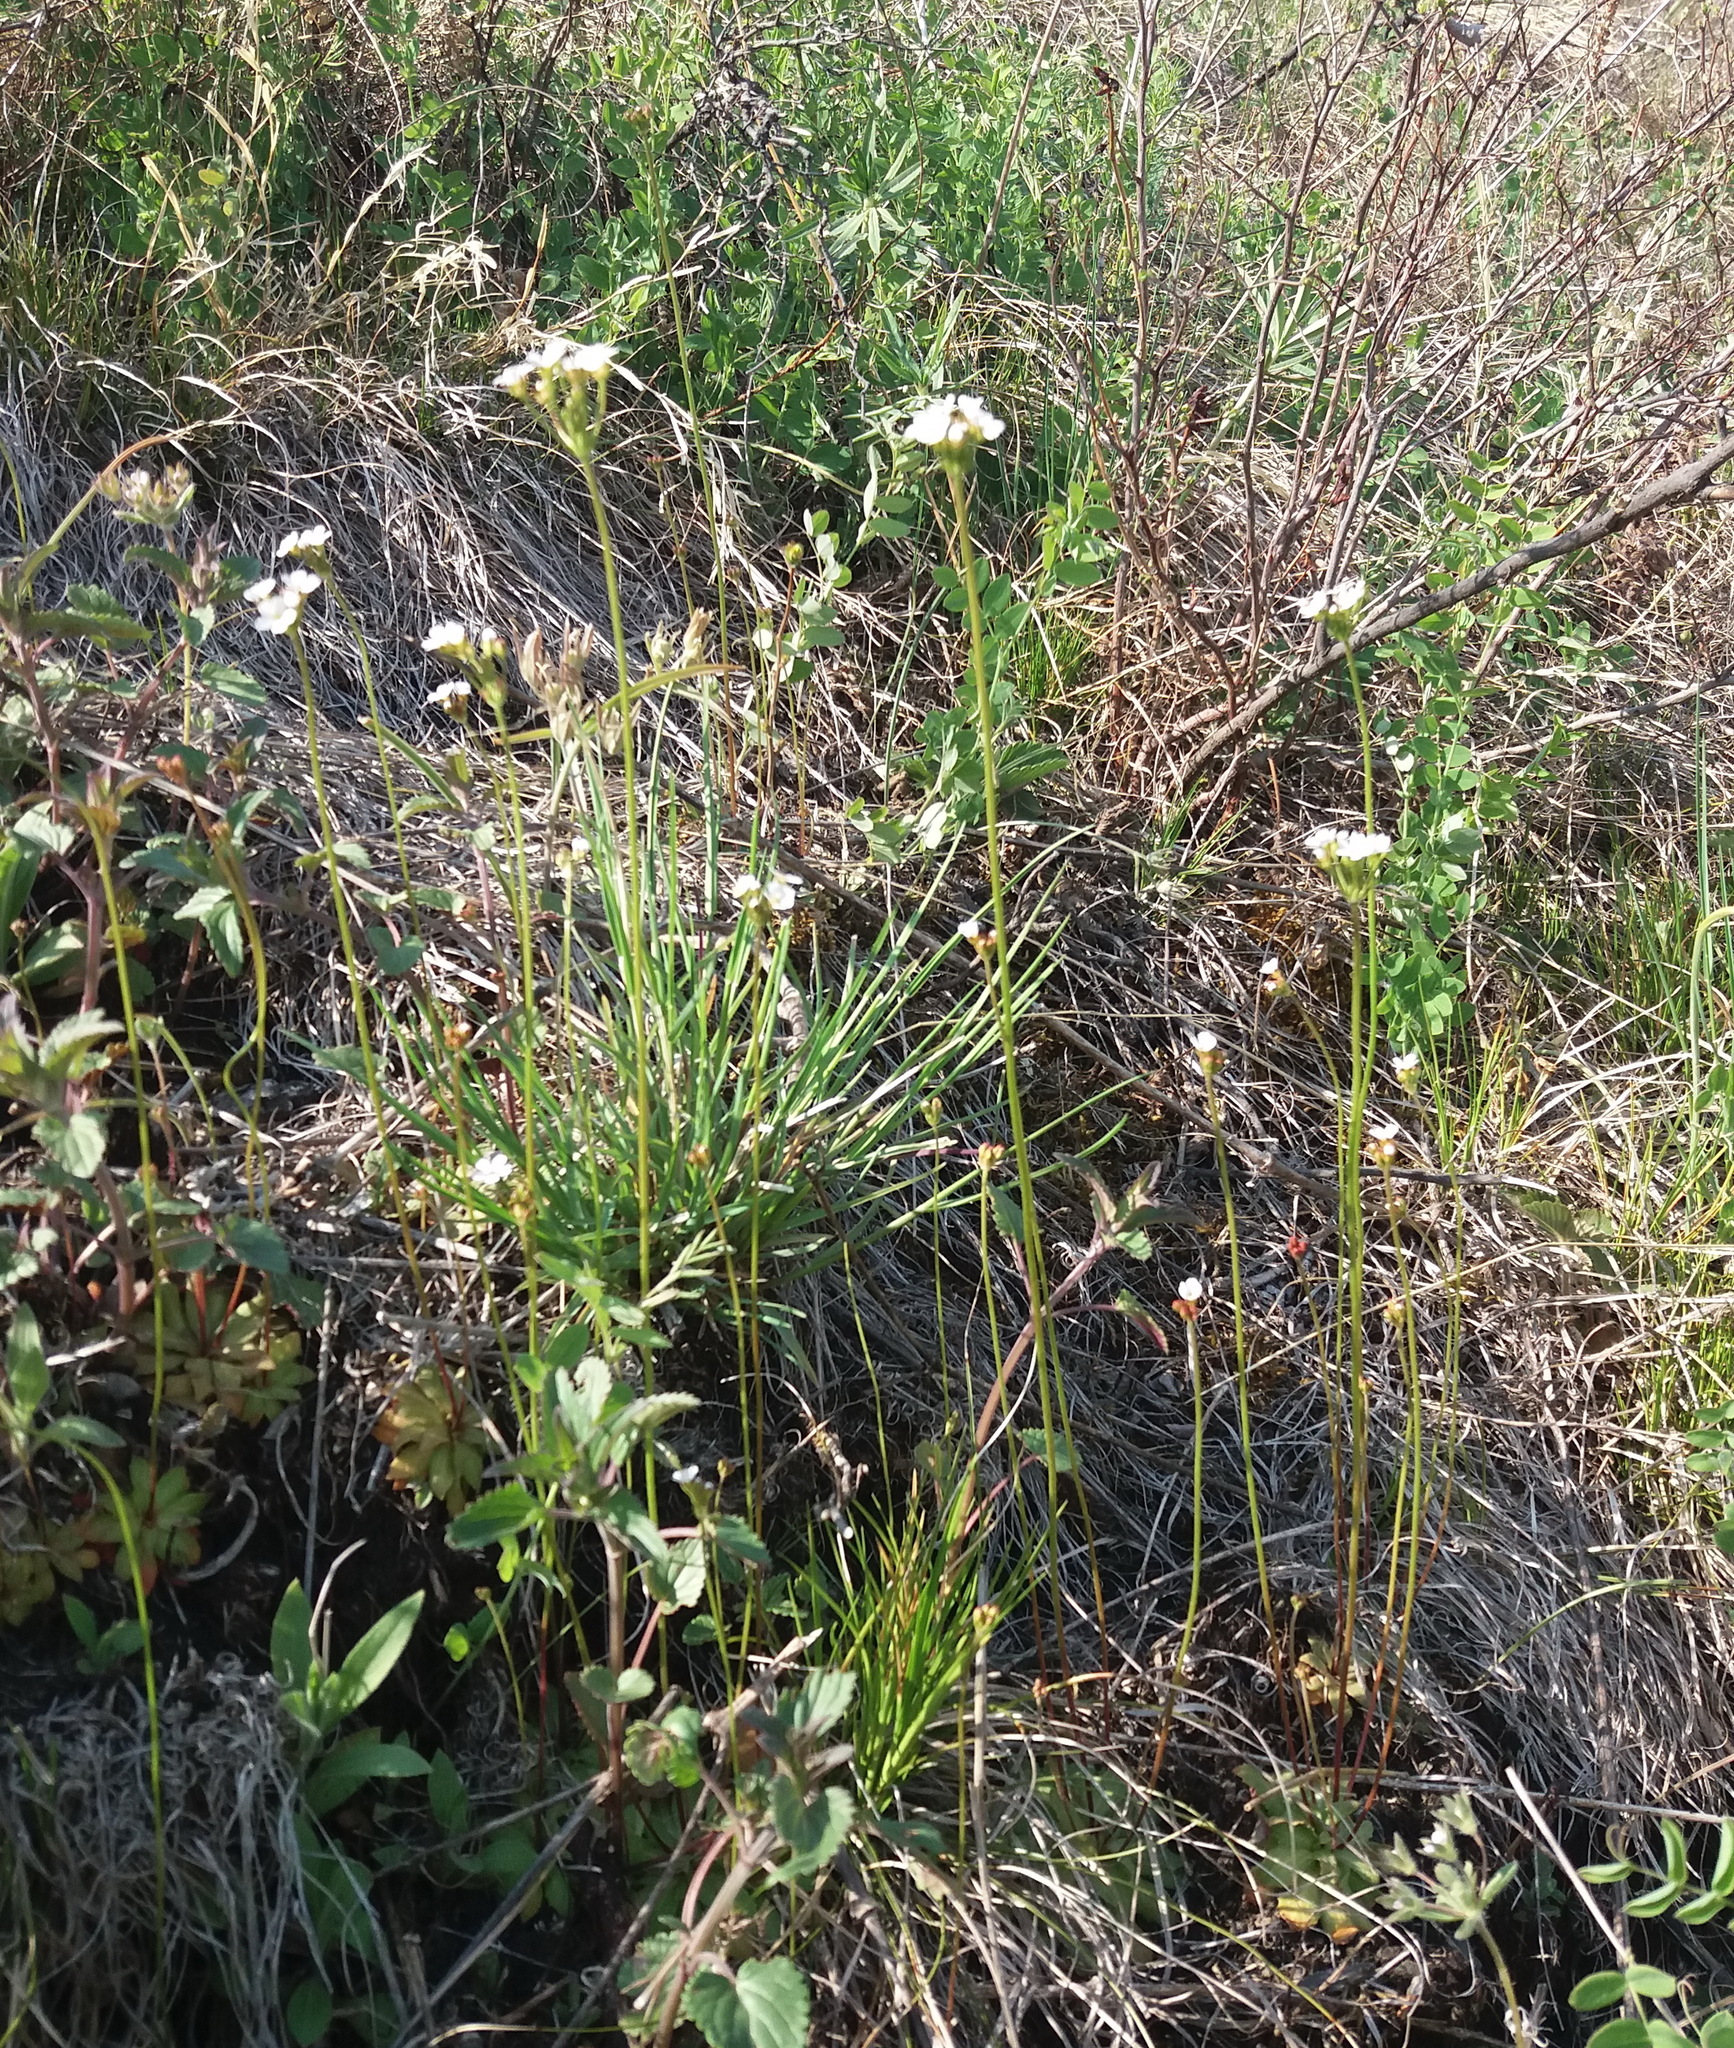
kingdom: Plantae
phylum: Tracheophyta
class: Magnoliopsida
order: Ericales
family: Primulaceae
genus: Androsace
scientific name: Androsace septentrionalis
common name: Hairy northern fairy-candelabra
